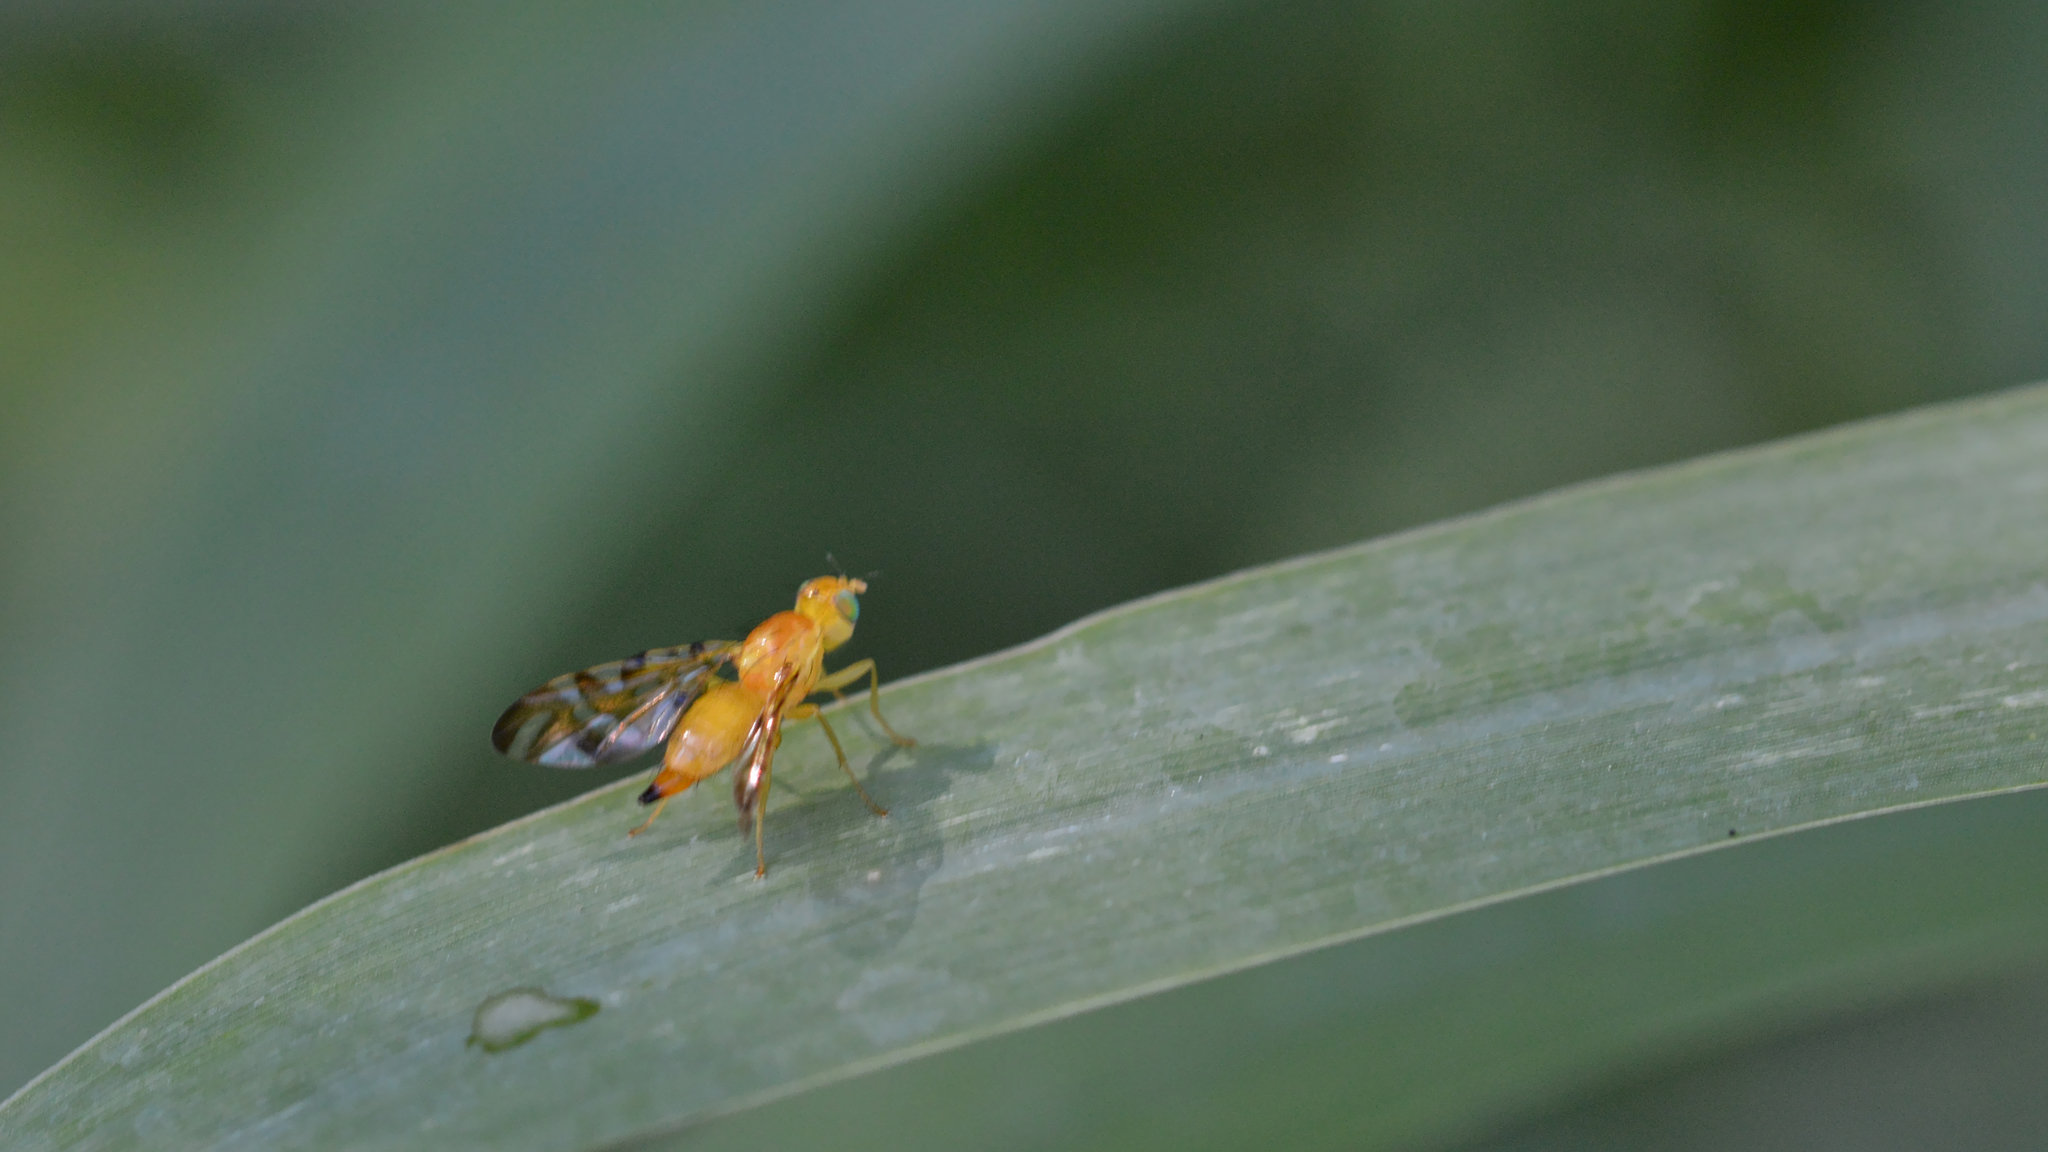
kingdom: Animalia
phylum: Arthropoda
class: Insecta
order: Diptera
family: Tephritidae
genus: Strauzia
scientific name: Strauzia perfecta
